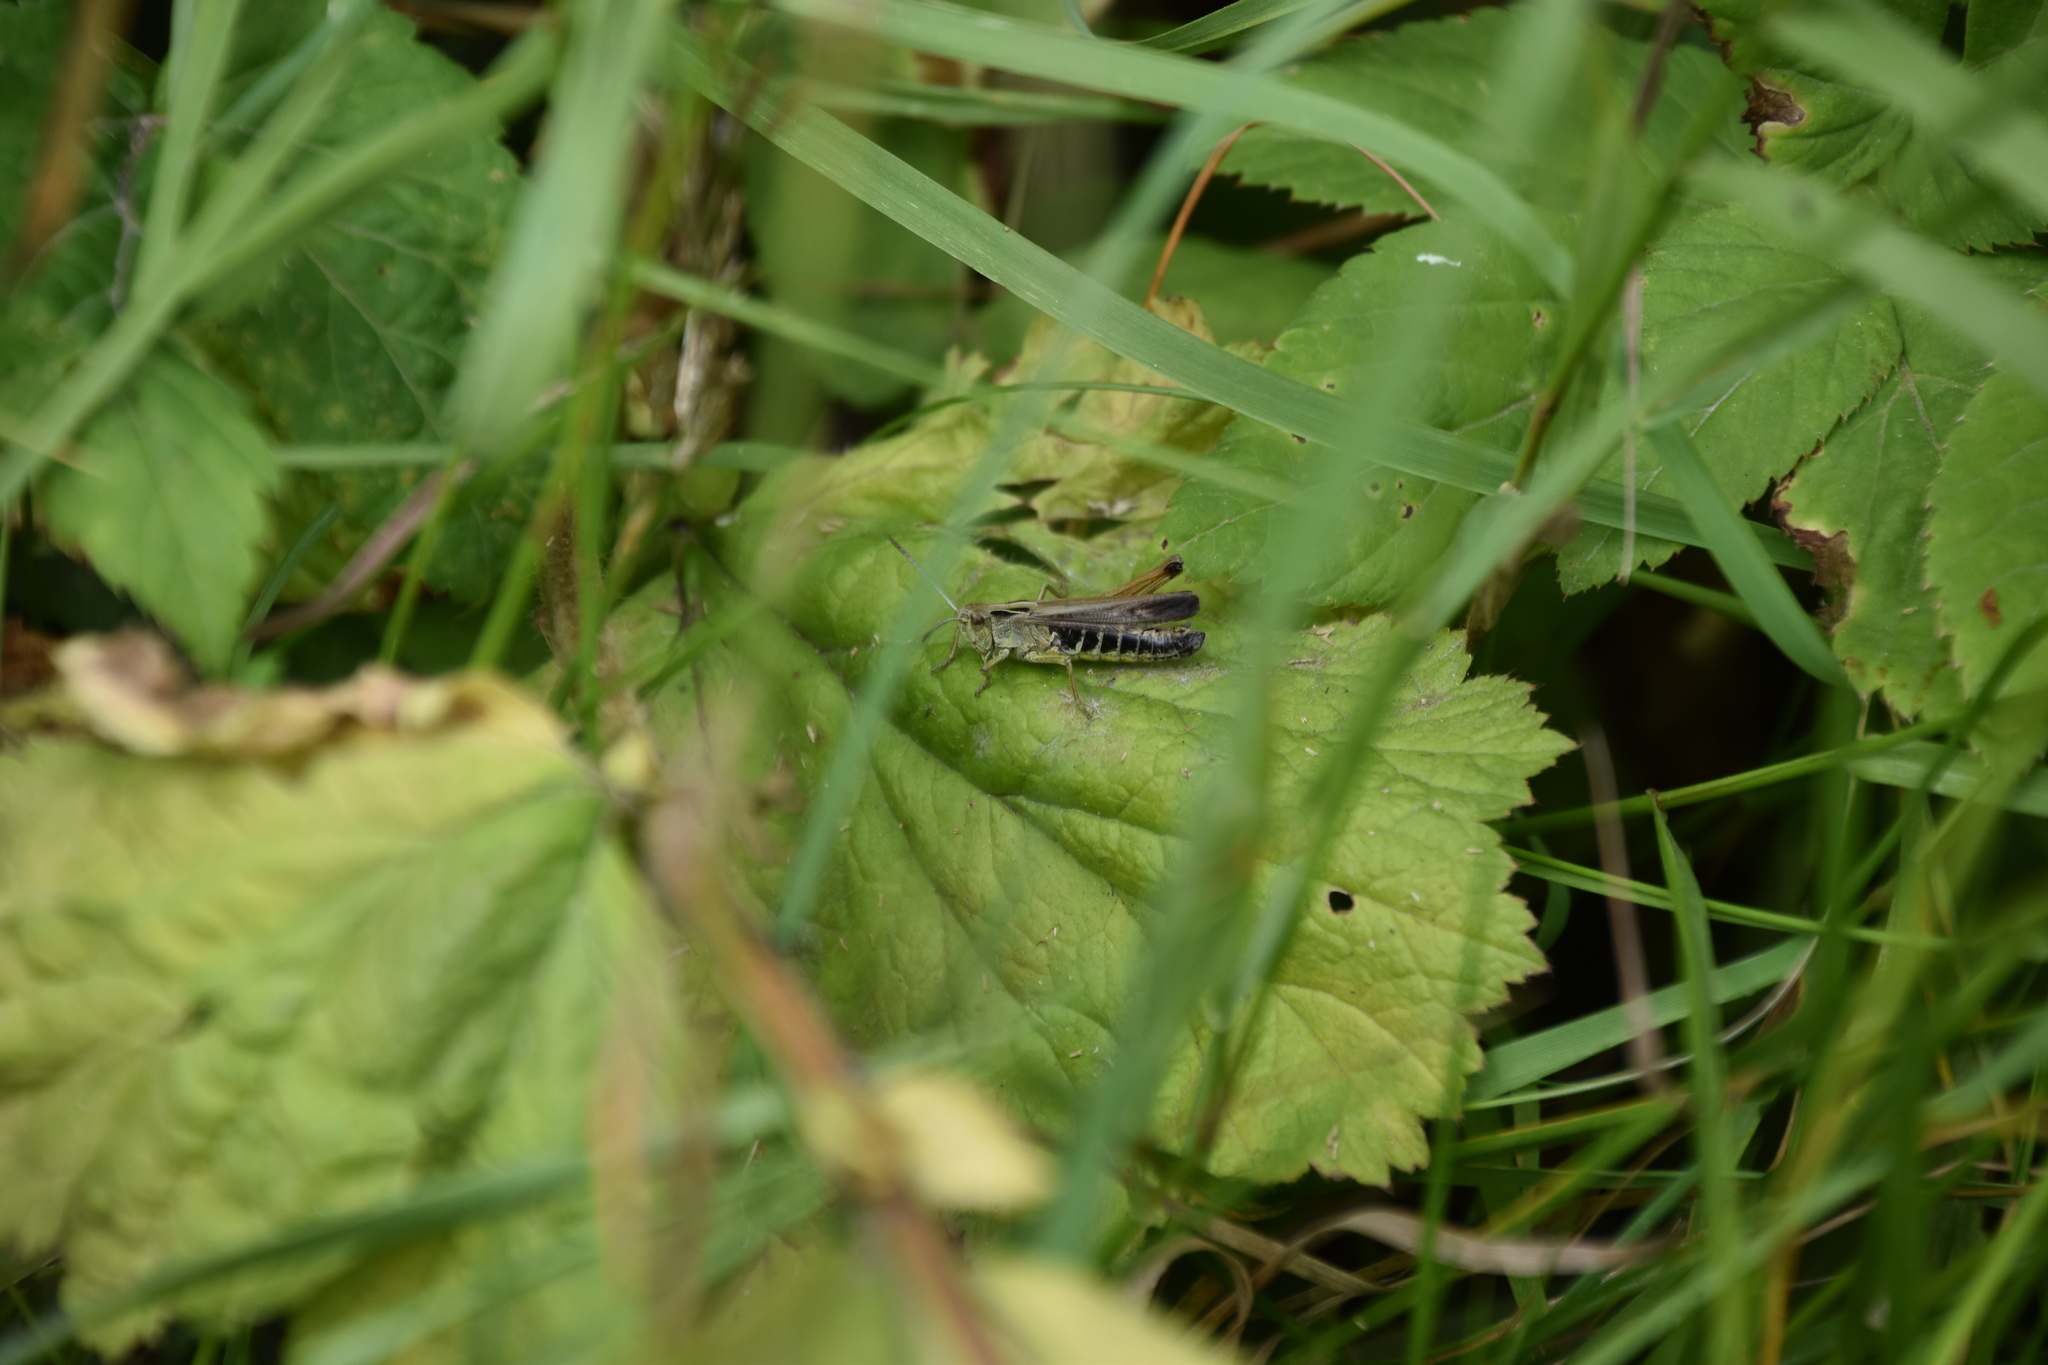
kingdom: Animalia
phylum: Arthropoda
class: Insecta
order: Orthoptera
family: Acrididae
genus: Omocestus
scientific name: Omocestus viridulus
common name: Common green grasshopper
